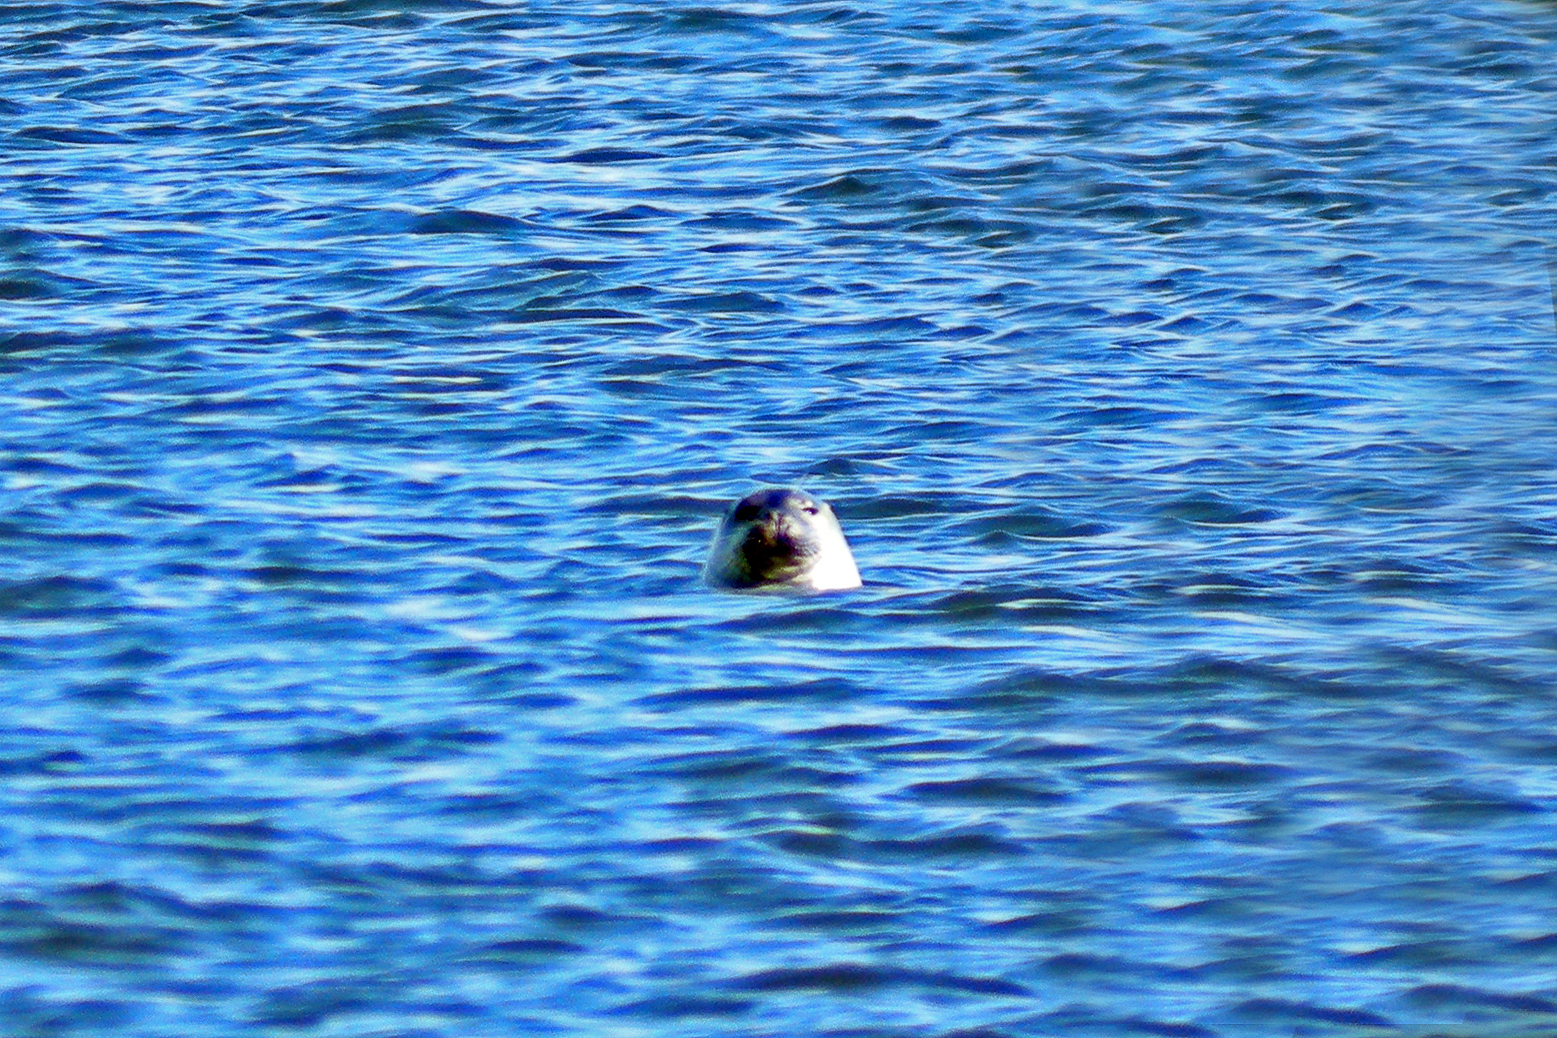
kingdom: Animalia
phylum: Chordata
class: Mammalia
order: Carnivora
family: Phocidae
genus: Phoca
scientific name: Phoca vitulina
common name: Harbor seal
